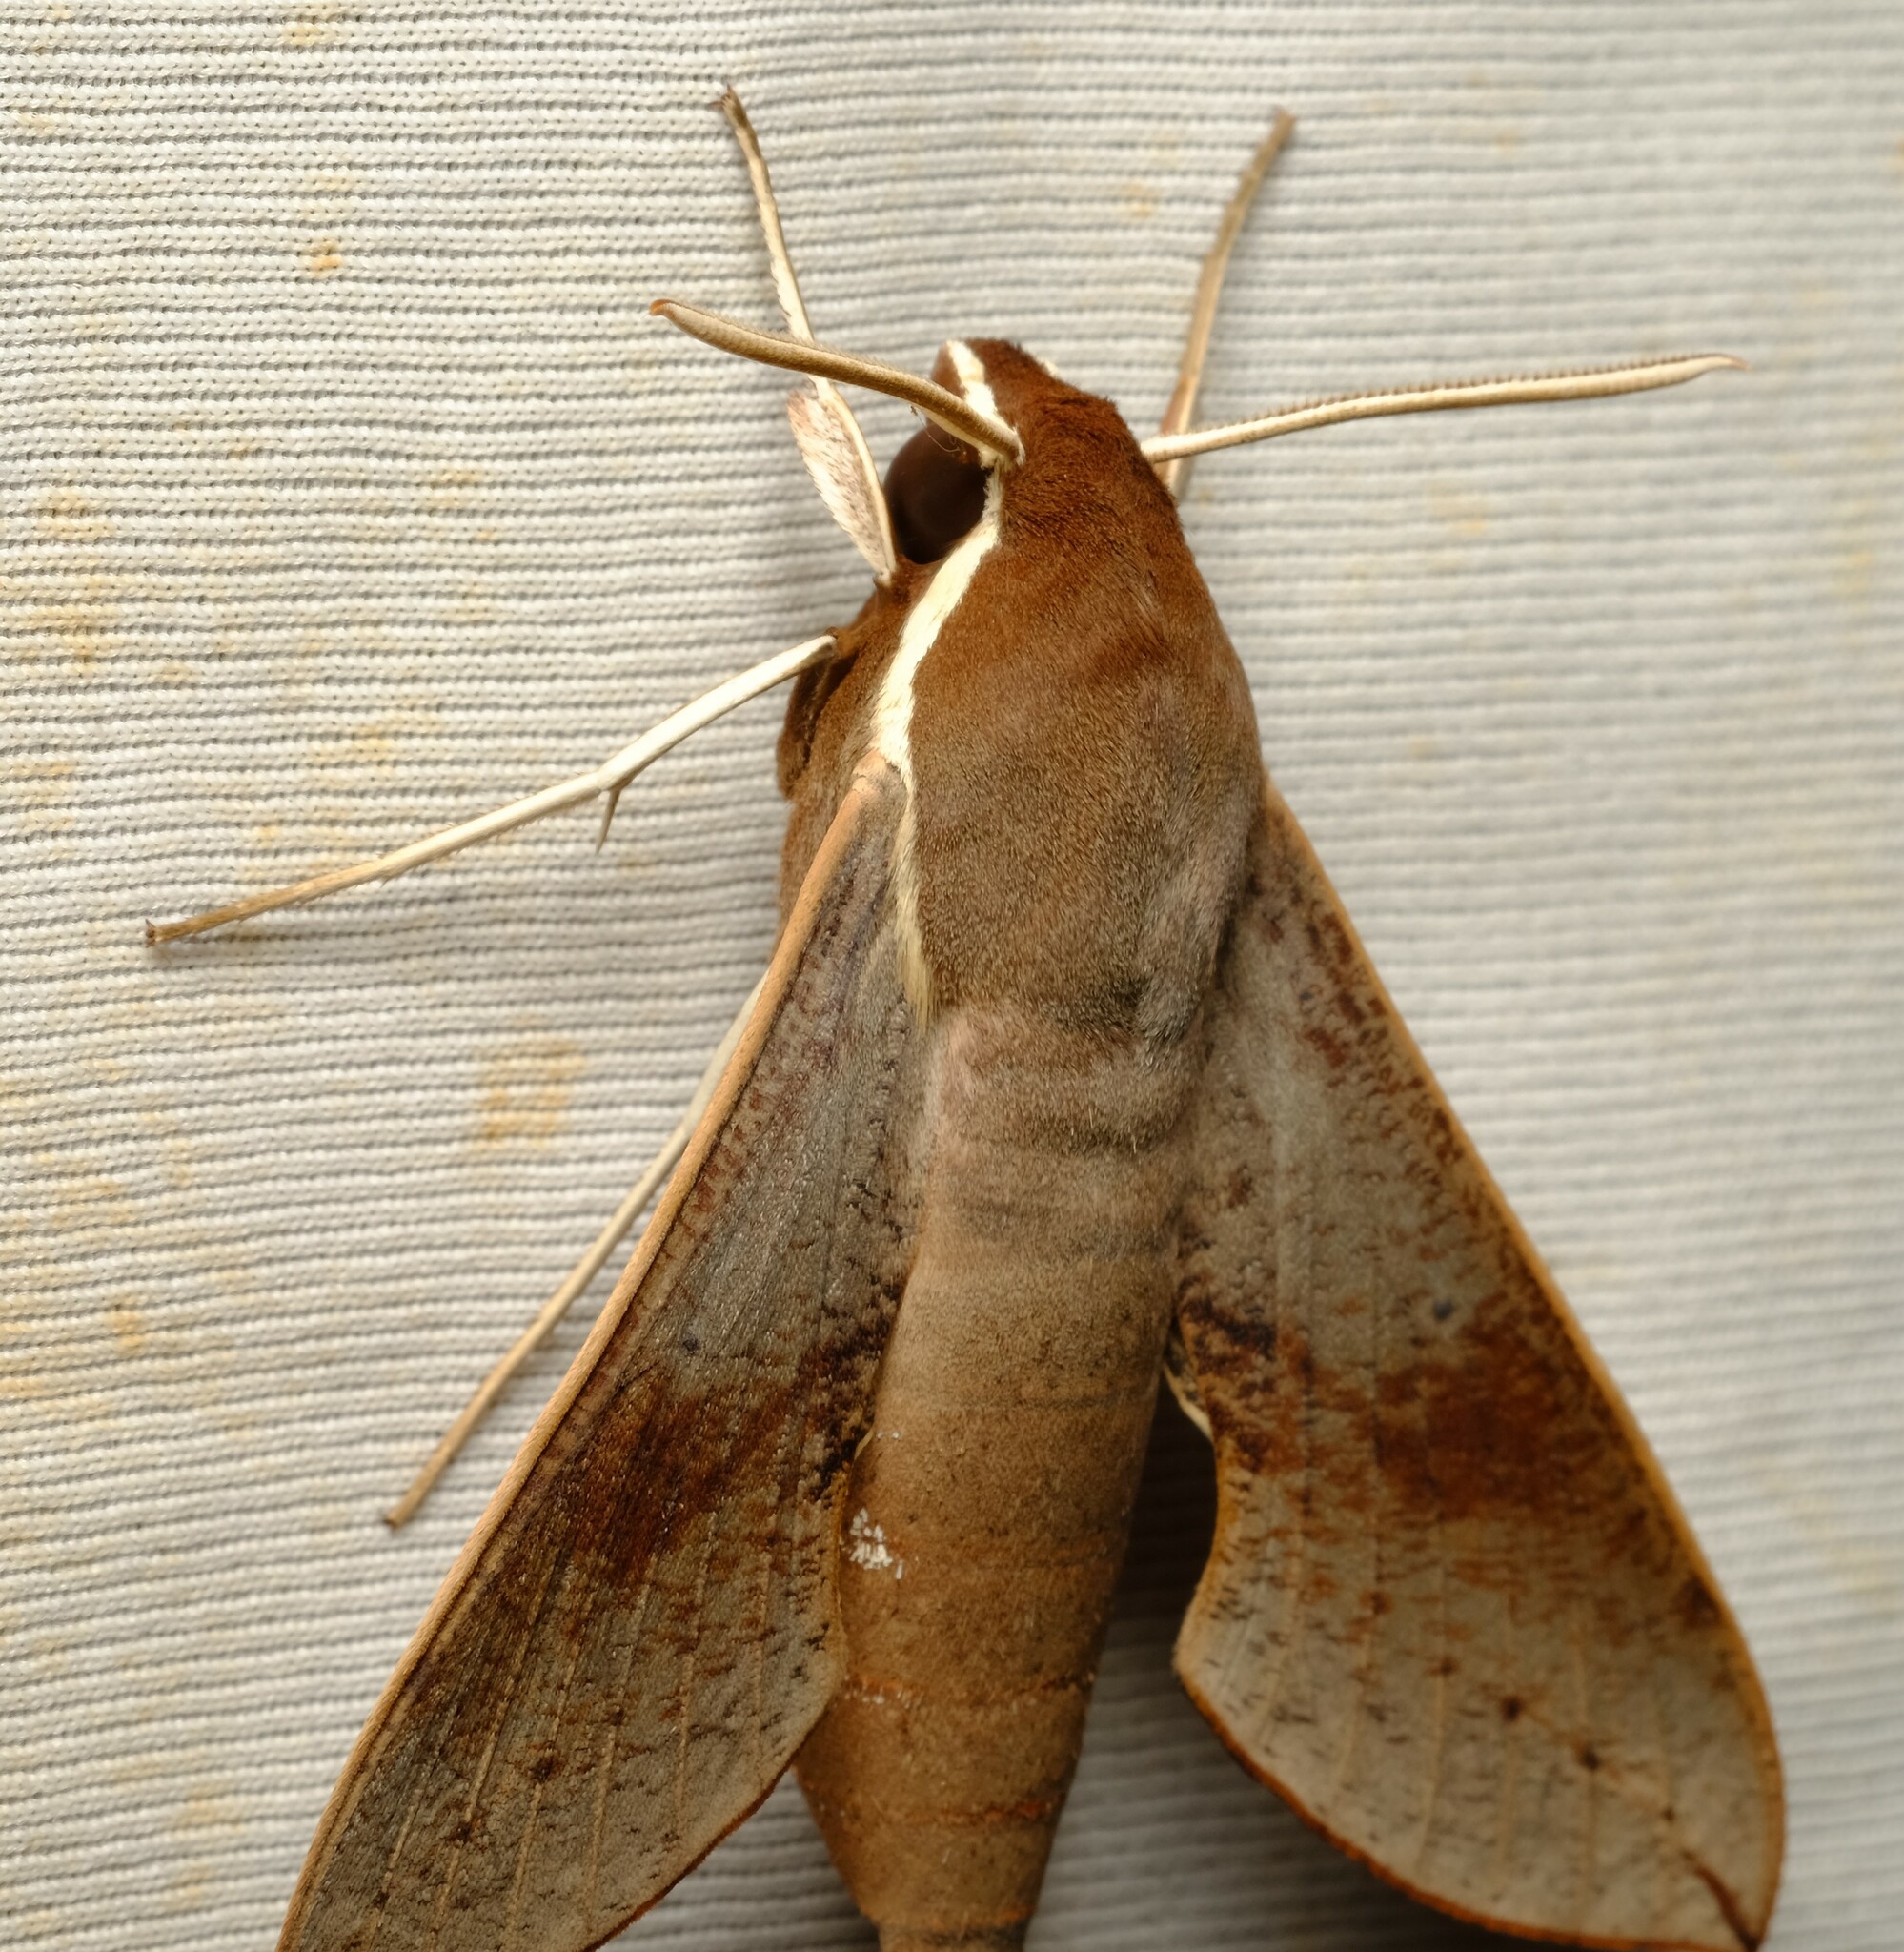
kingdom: Animalia
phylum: Arthropoda
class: Insecta
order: Lepidoptera
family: Sphingidae
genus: Hippotion
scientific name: Hippotion scrofa
